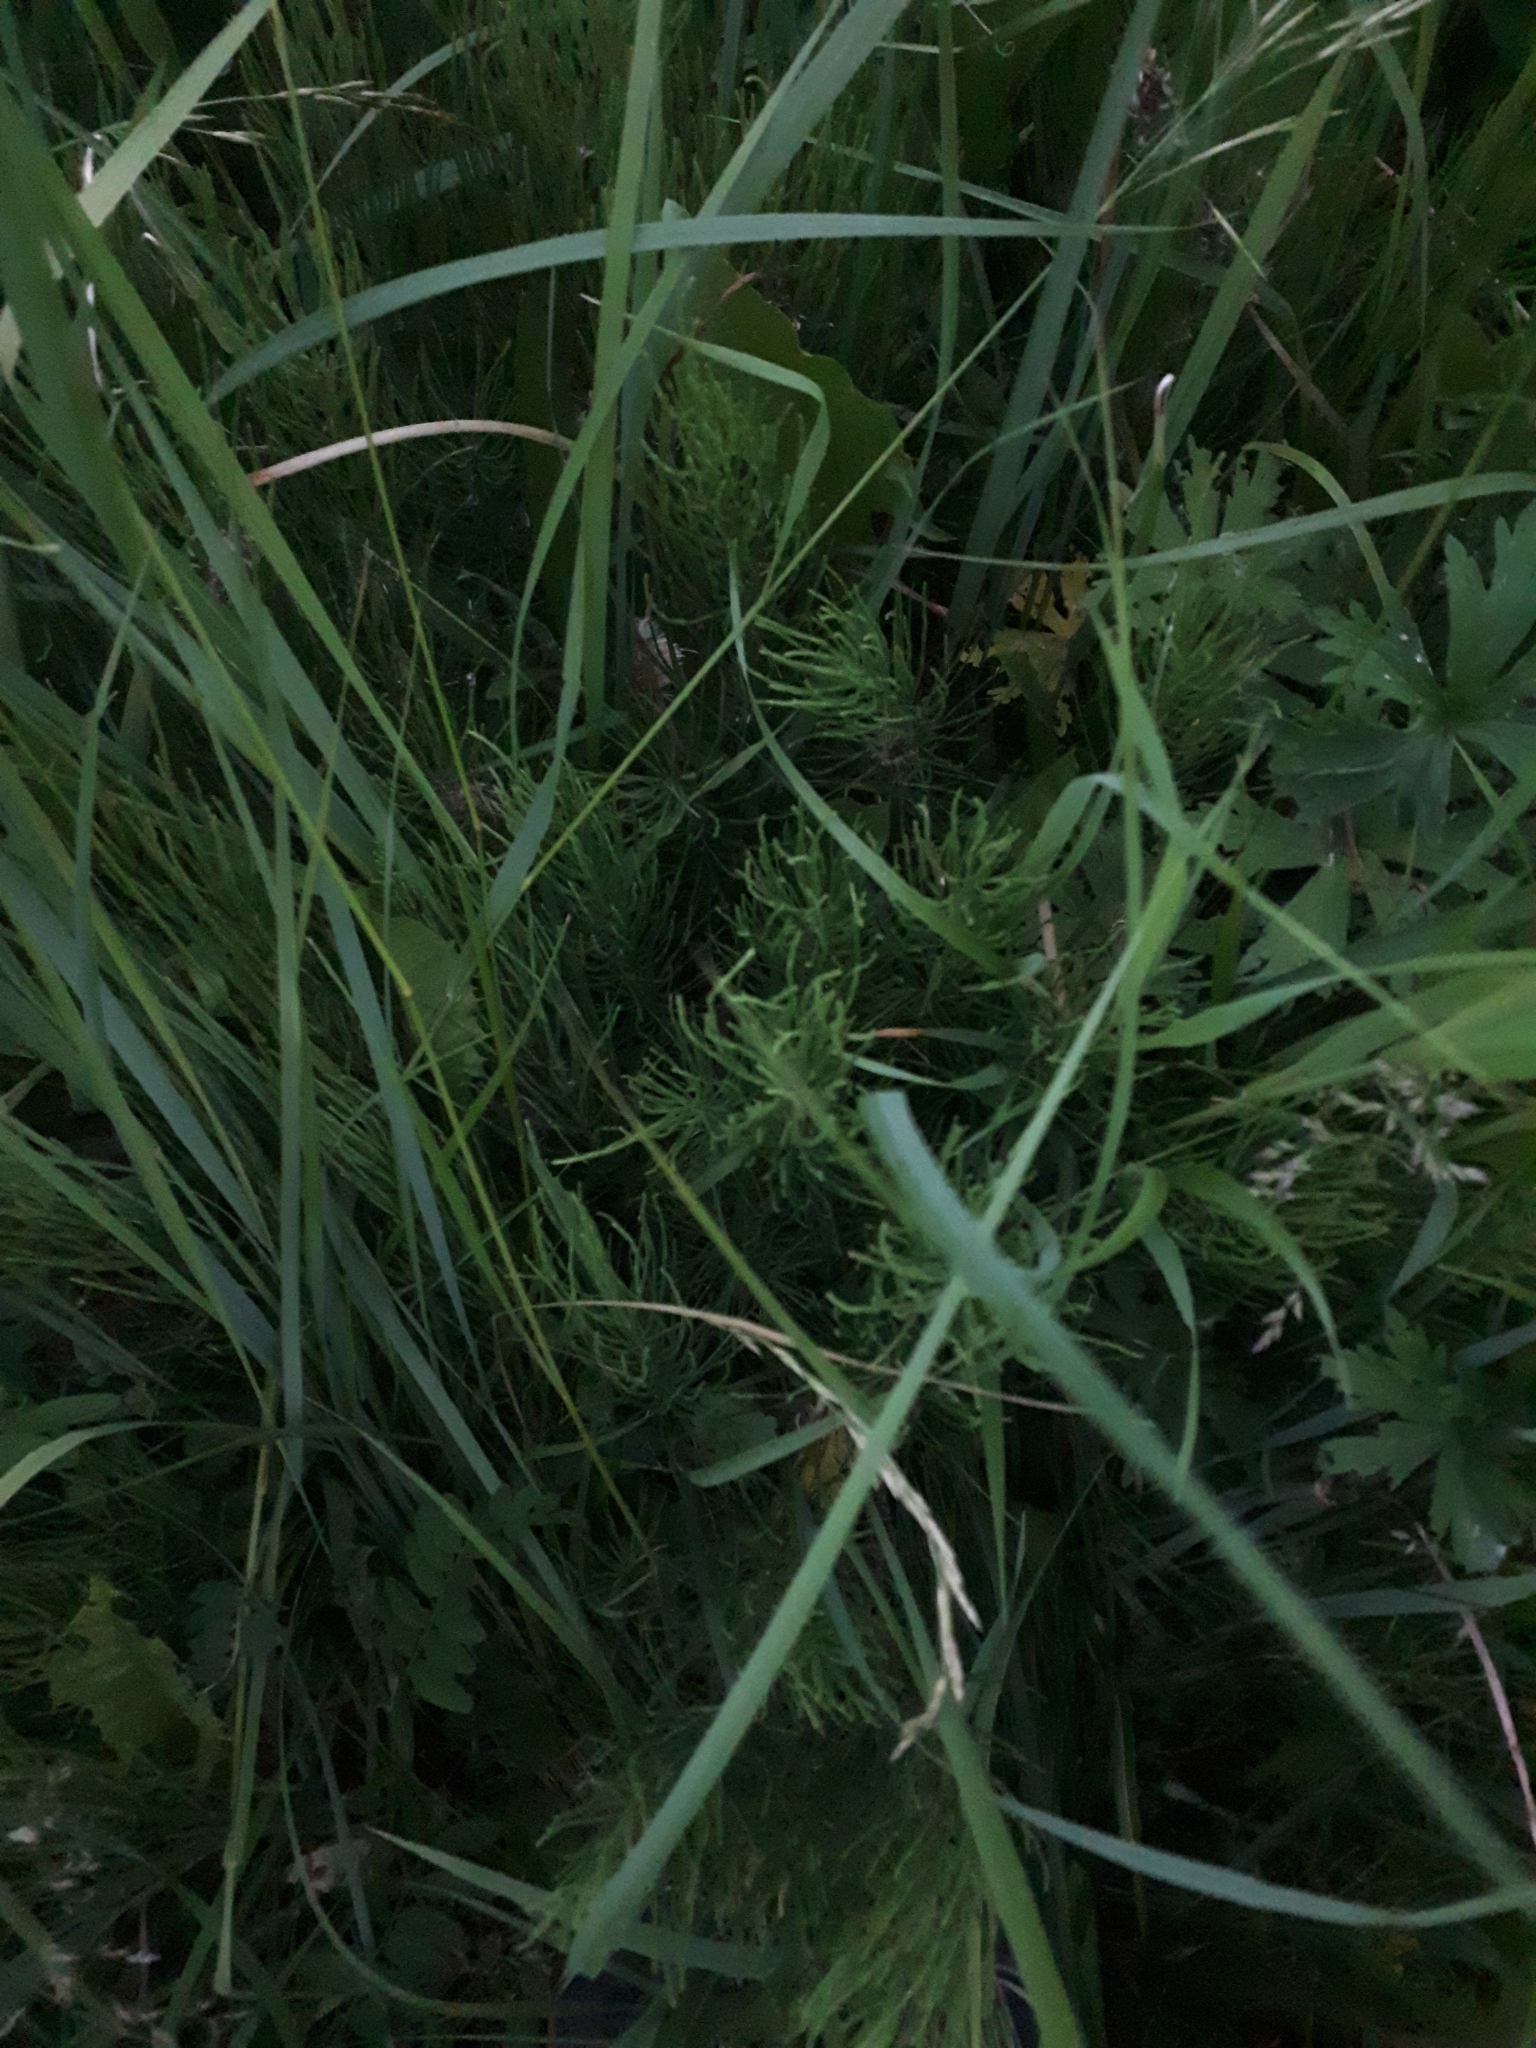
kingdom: Plantae
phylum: Tracheophyta
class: Polypodiopsida
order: Equisetales
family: Equisetaceae
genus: Equisetum
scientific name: Equisetum arvense
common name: Field horsetail
